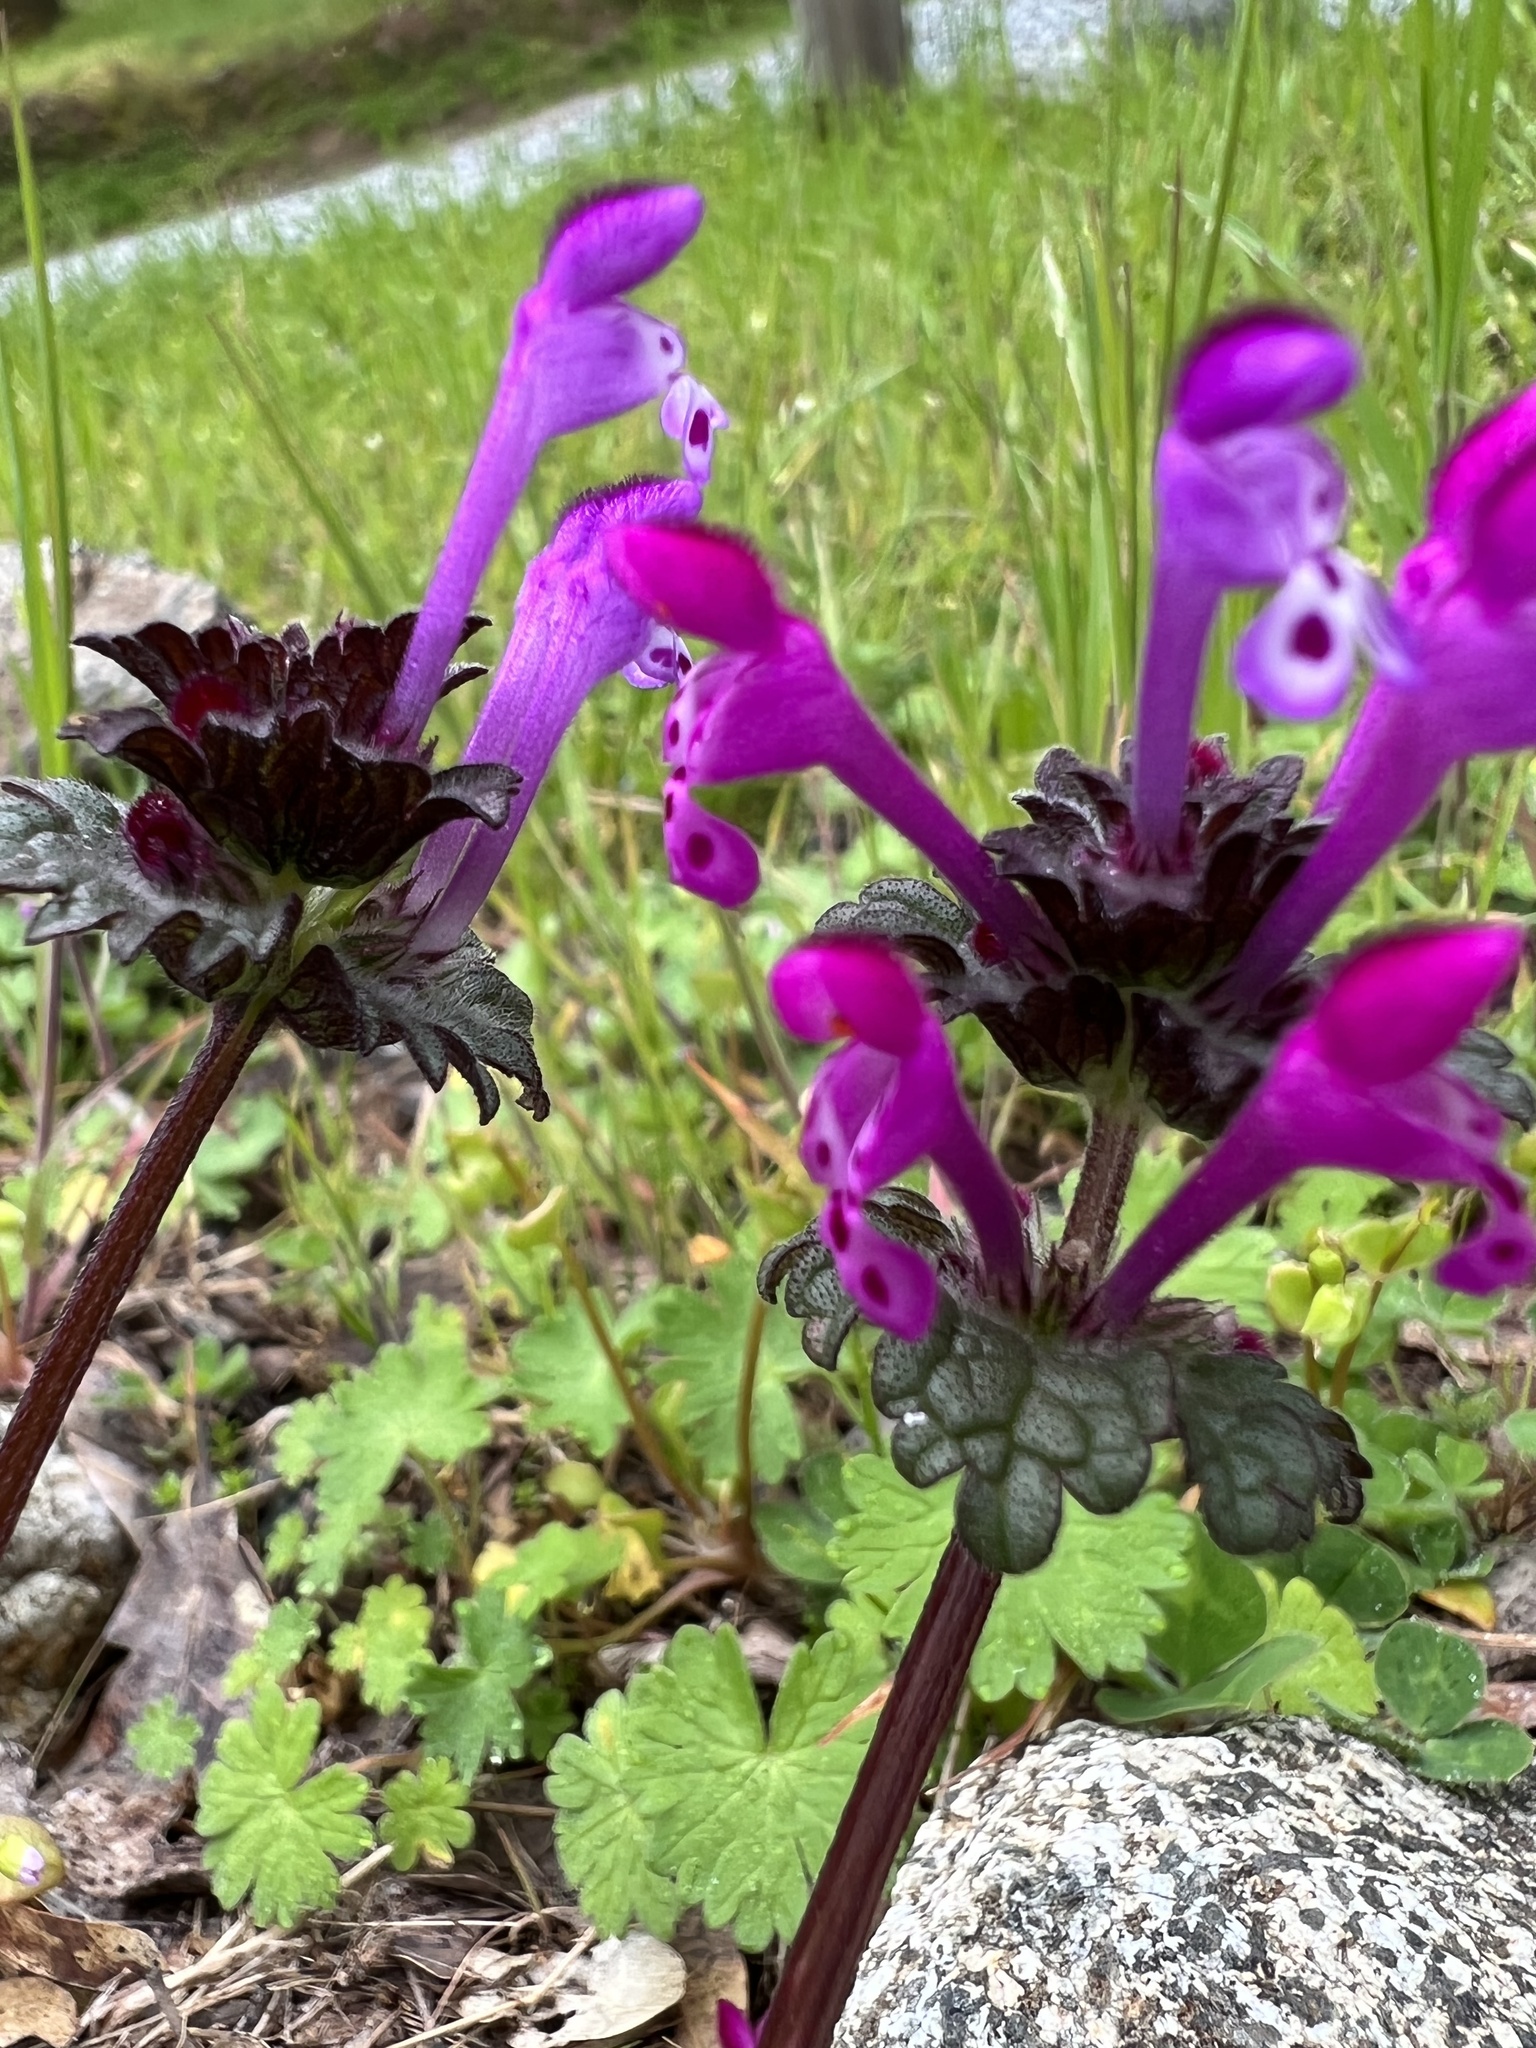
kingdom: Plantae
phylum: Tracheophyta
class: Magnoliopsida
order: Lamiales
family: Lamiaceae
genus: Lamium
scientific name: Lamium amplexicaule
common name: Henbit dead-nettle
